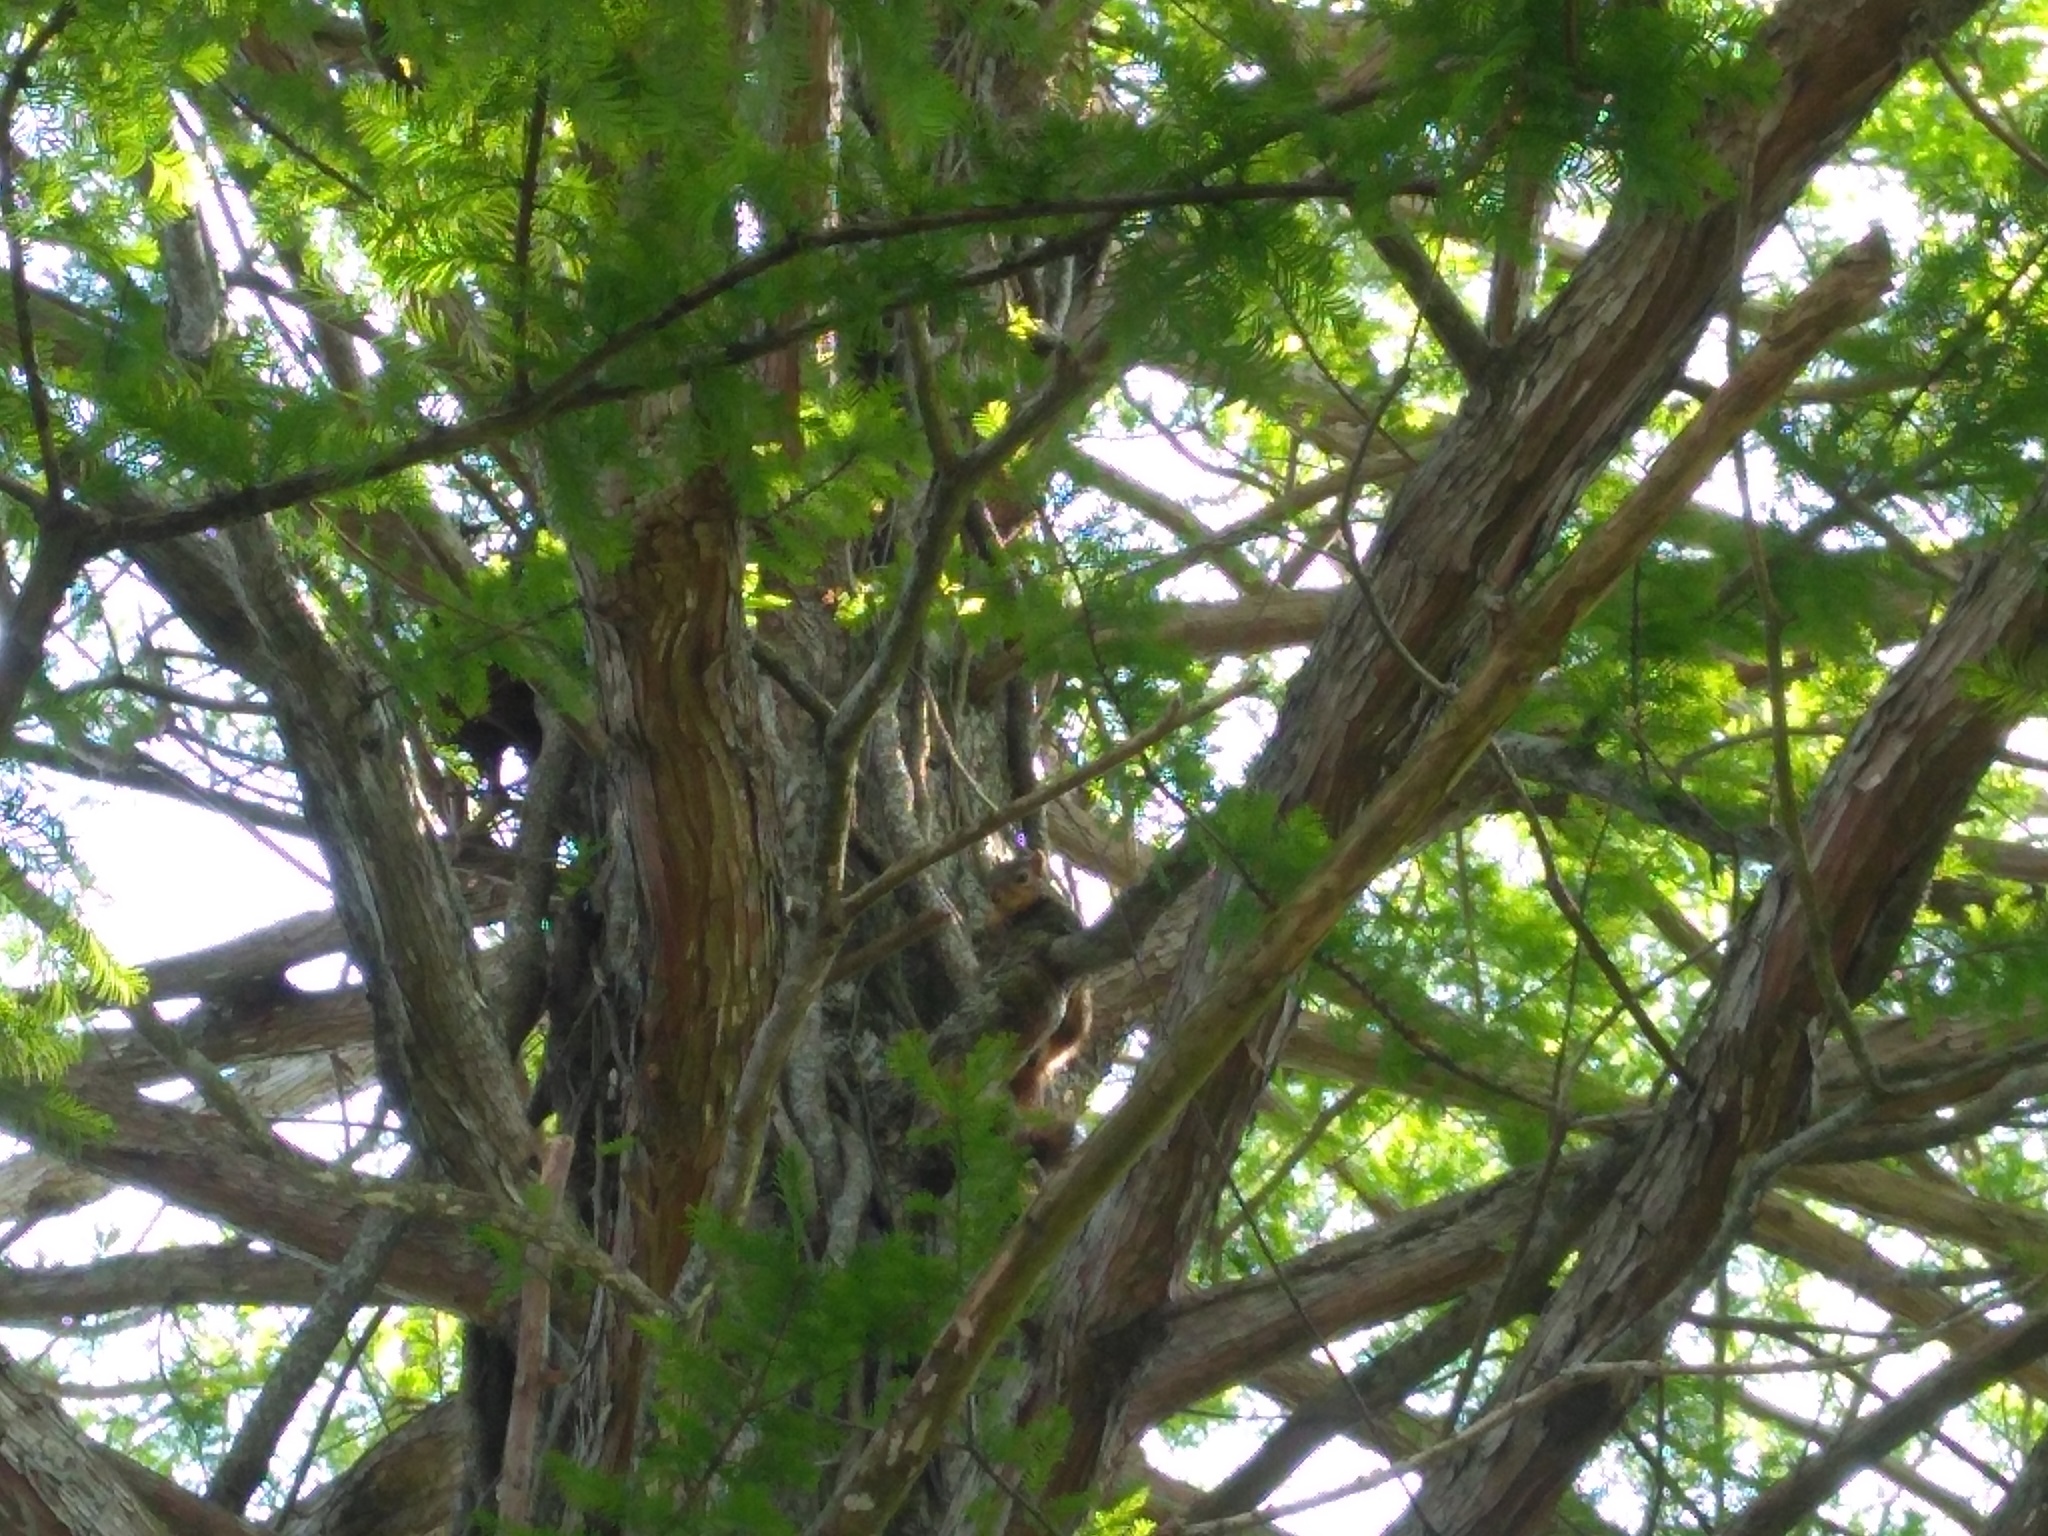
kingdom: Animalia
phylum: Chordata
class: Mammalia
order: Rodentia
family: Sciuridae
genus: Sciurus
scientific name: Sciurus niger
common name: Fox squirrel
